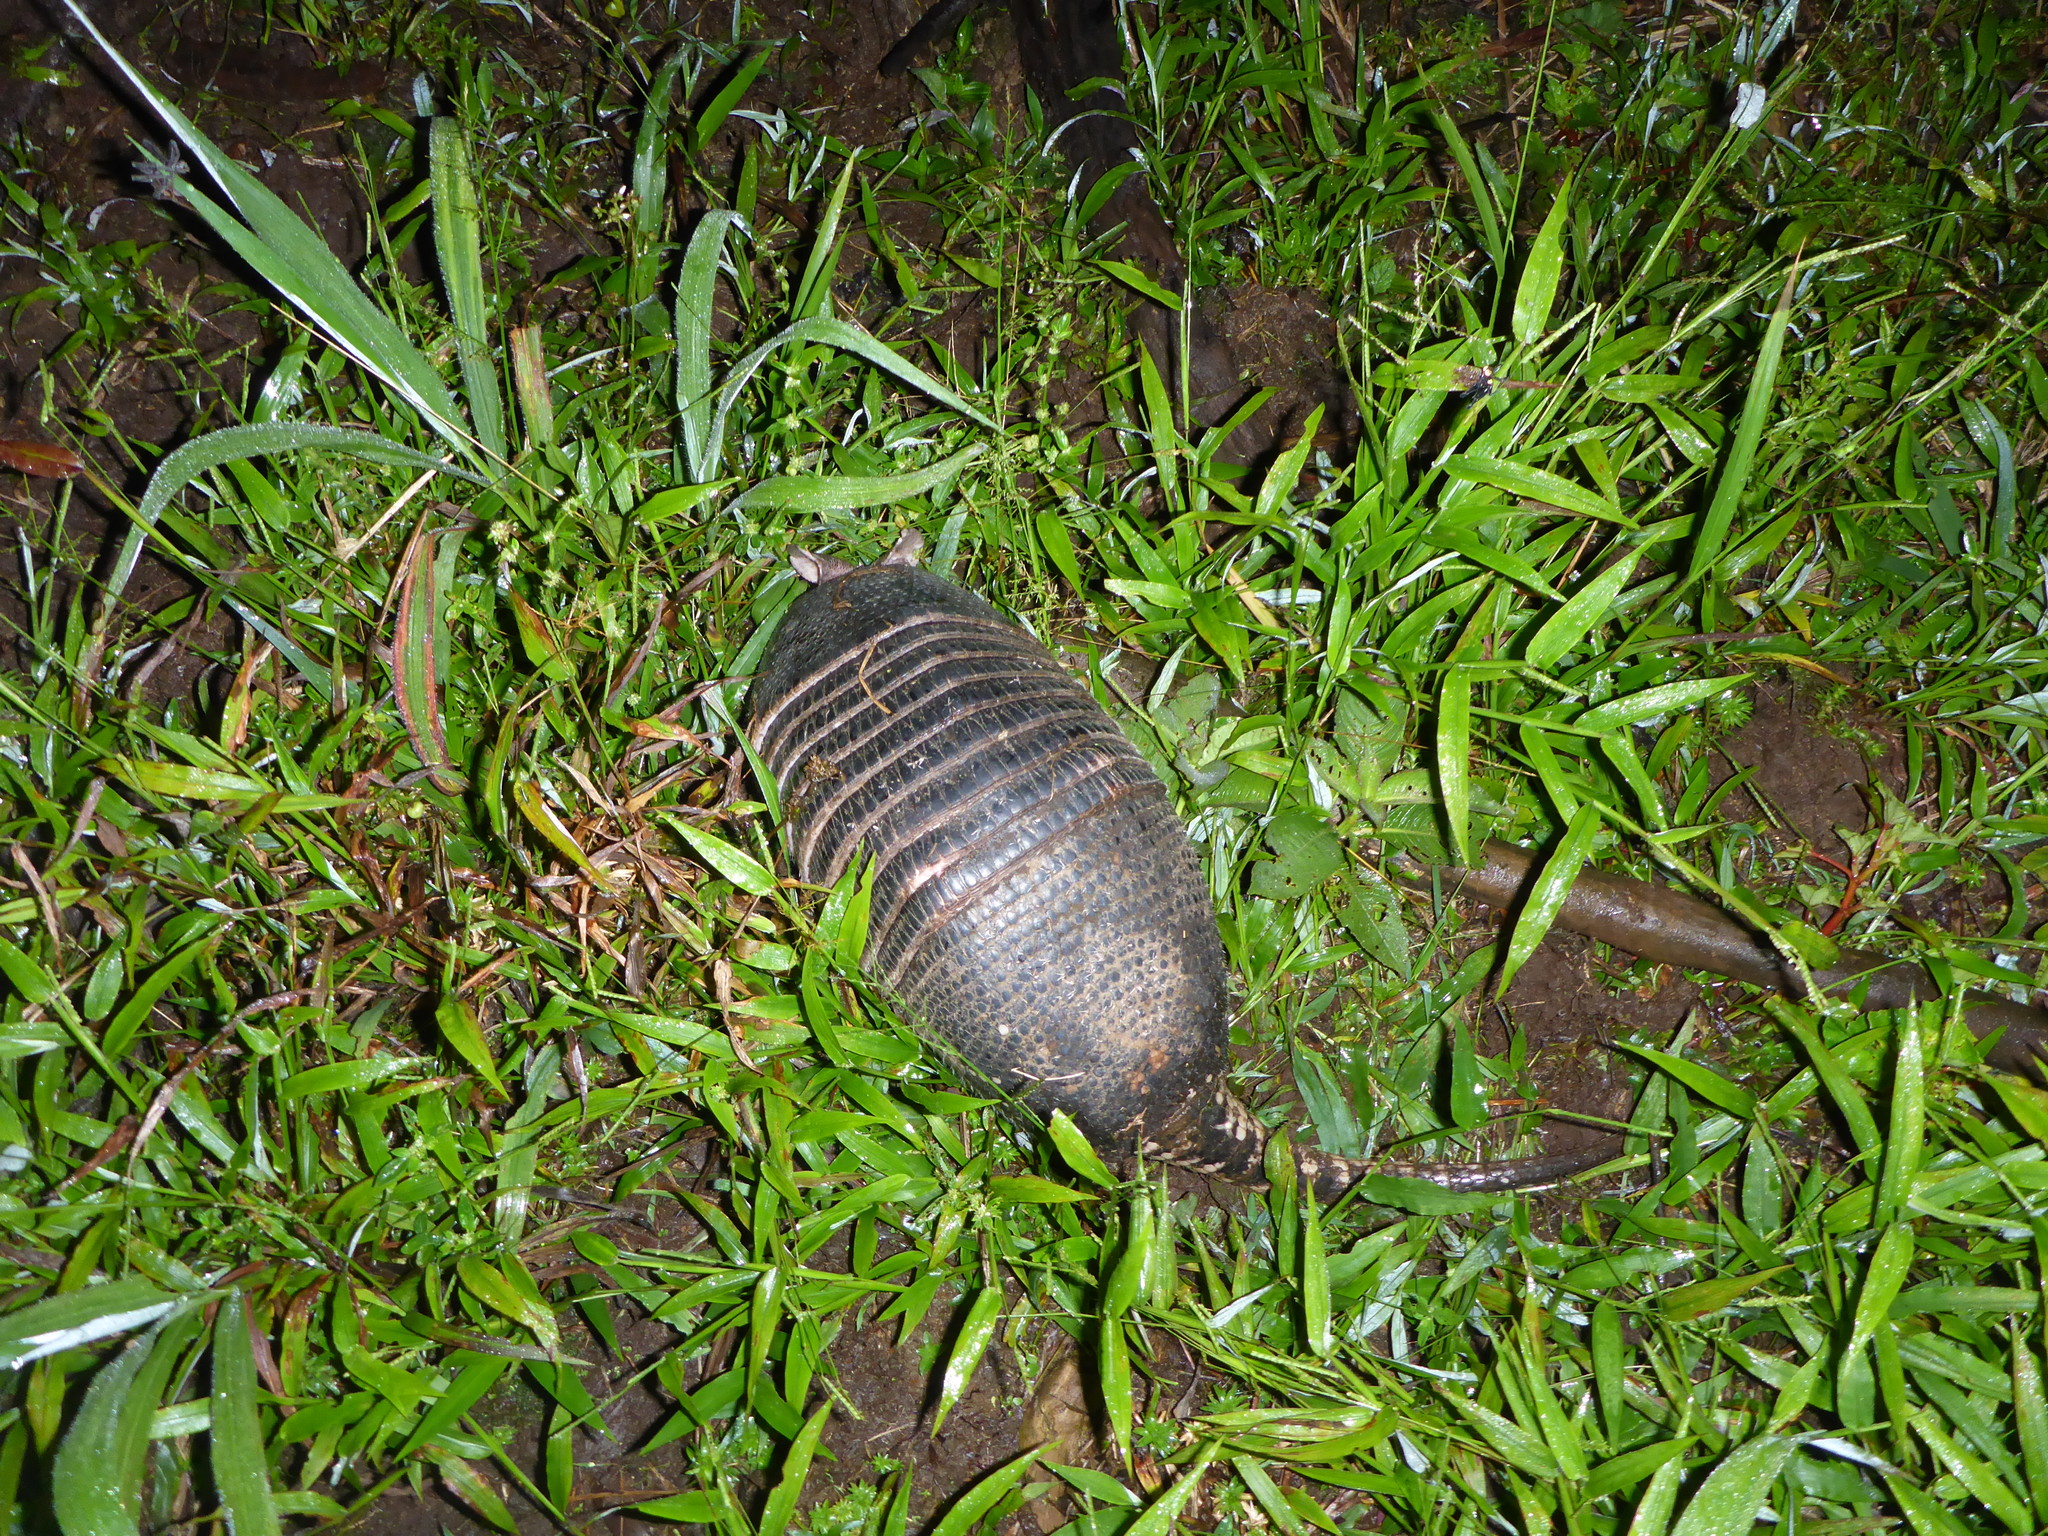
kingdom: Animalia
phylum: Chordata
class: Mammalia
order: Cingulata
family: Dasypodidae
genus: Dasypus
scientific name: Dasypus novemcinctus
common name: Nine-banded armadillo
